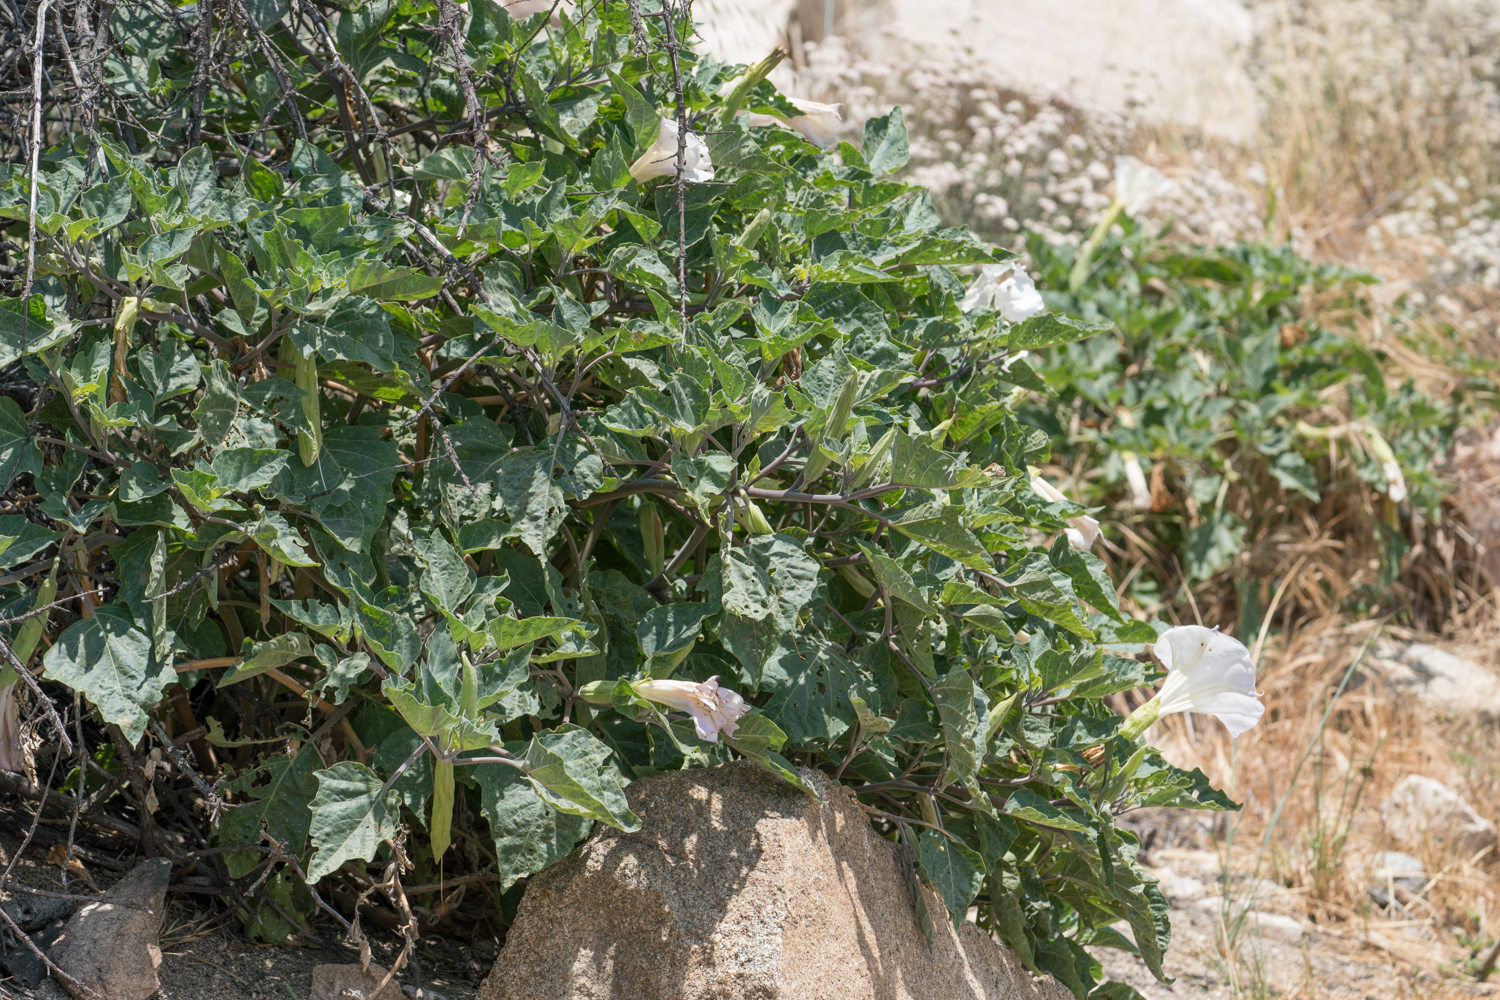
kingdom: Plantae
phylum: Tracheophyta
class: Magnoliopsida
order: Solanales
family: Solanaceae
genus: Datura
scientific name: Datura wrightii
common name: Sacred thorn-apple
